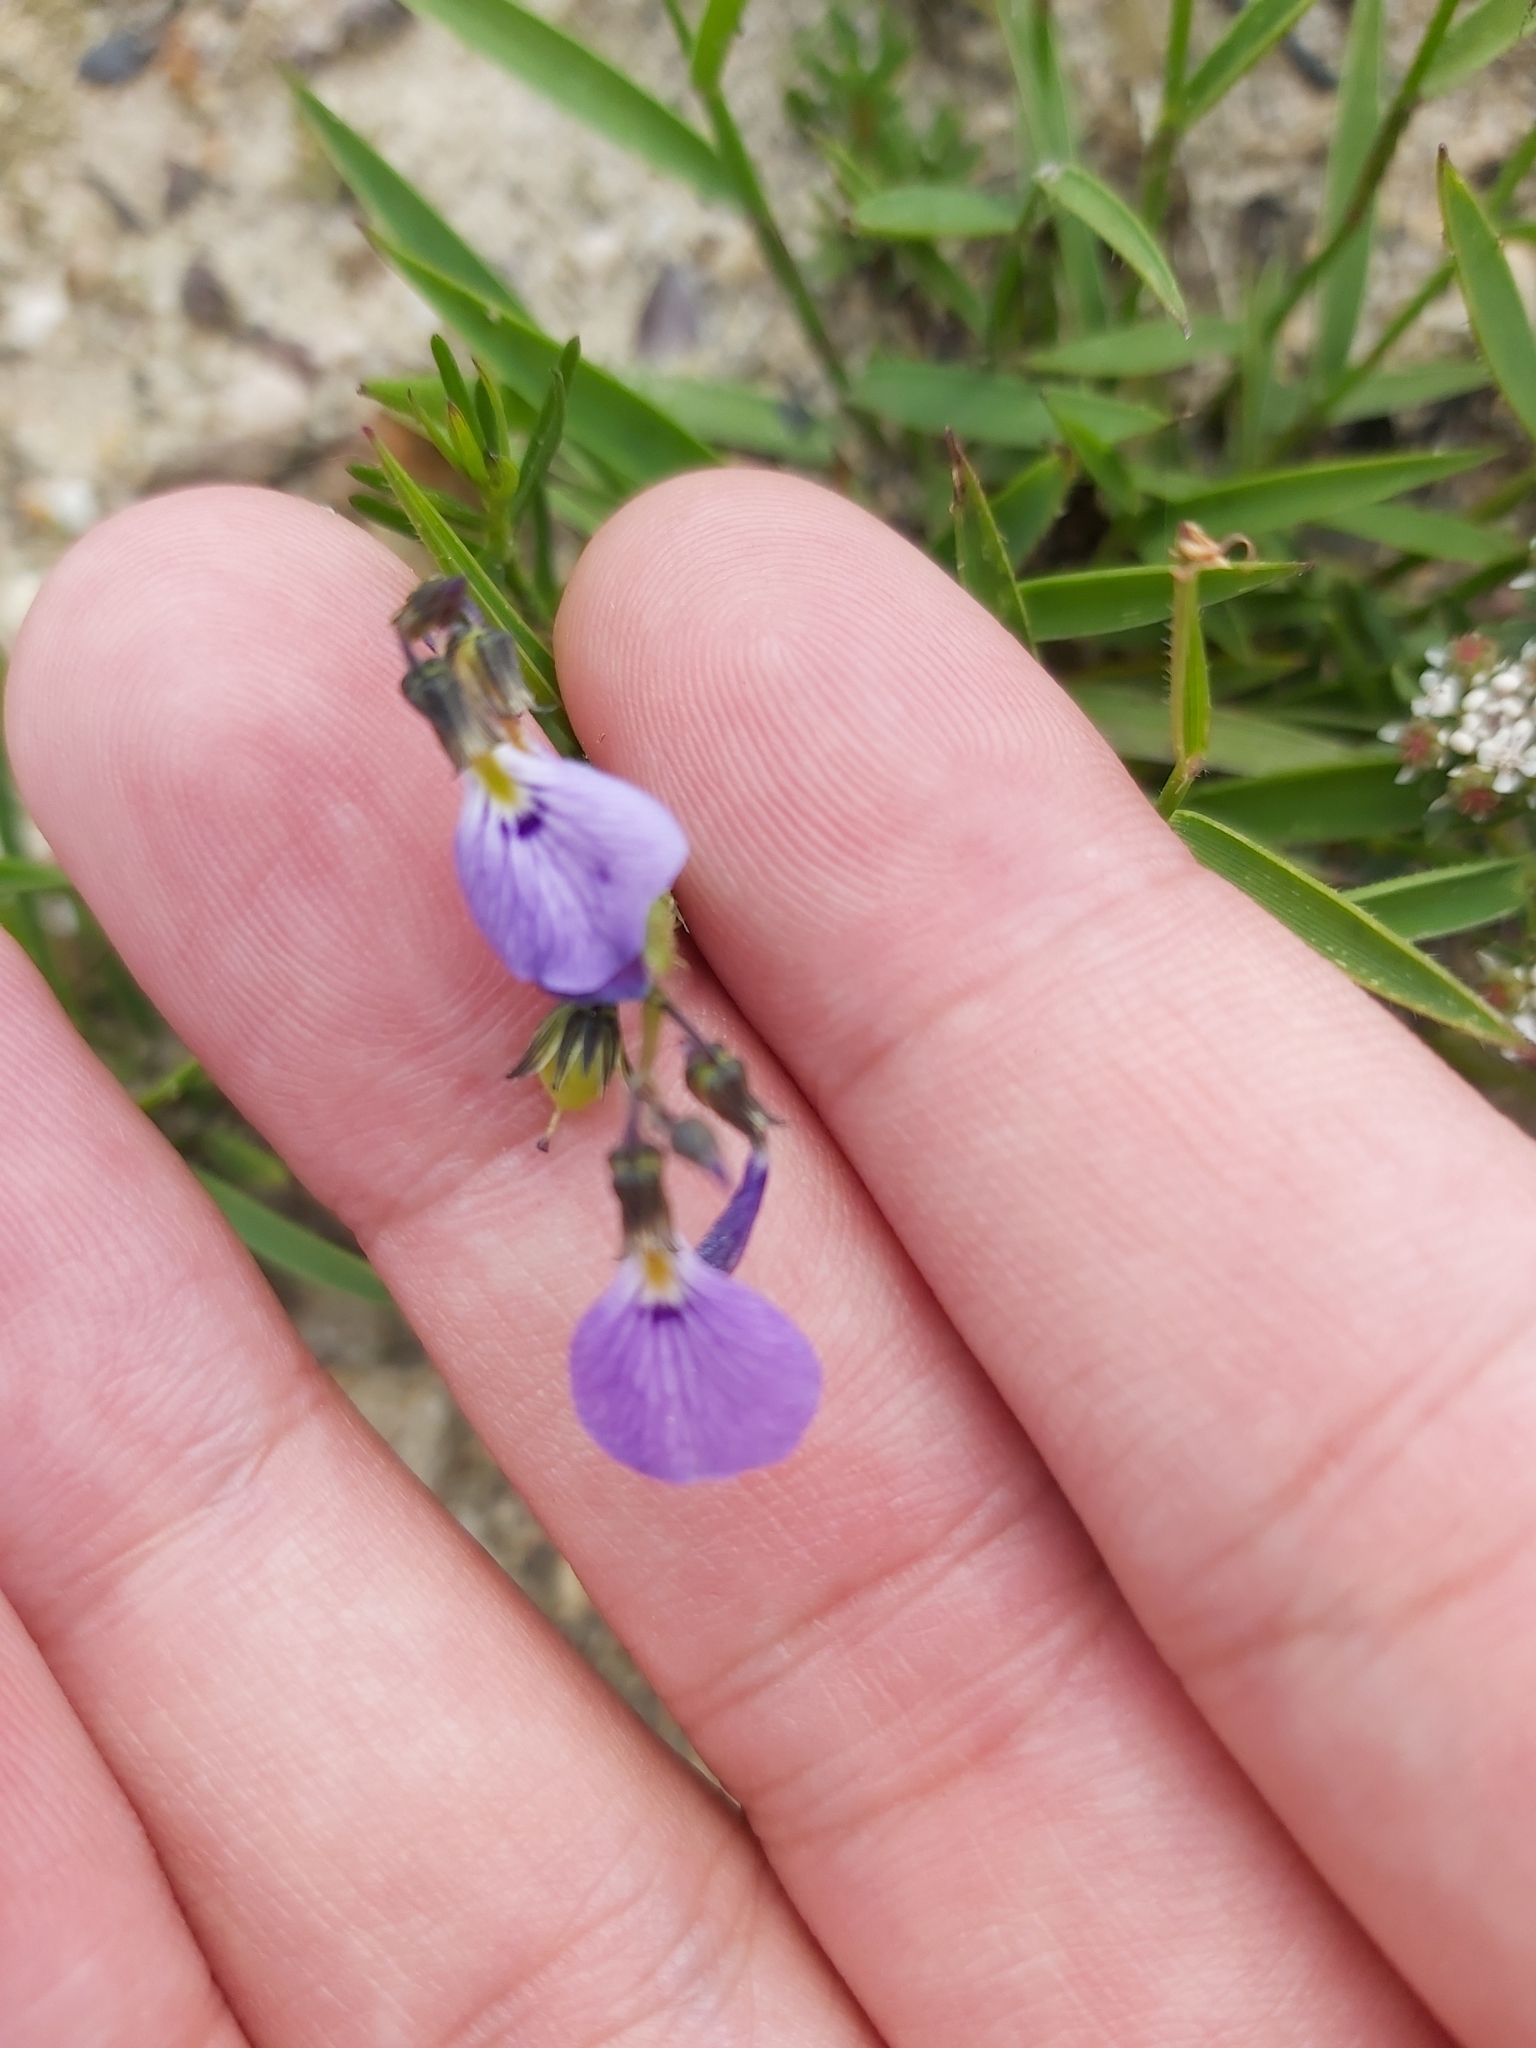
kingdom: Plantae
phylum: Tracheophyta
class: Magnoliopsida
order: Malpighiales
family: Violaceae
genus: Pigea
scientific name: Pigea monopetala
